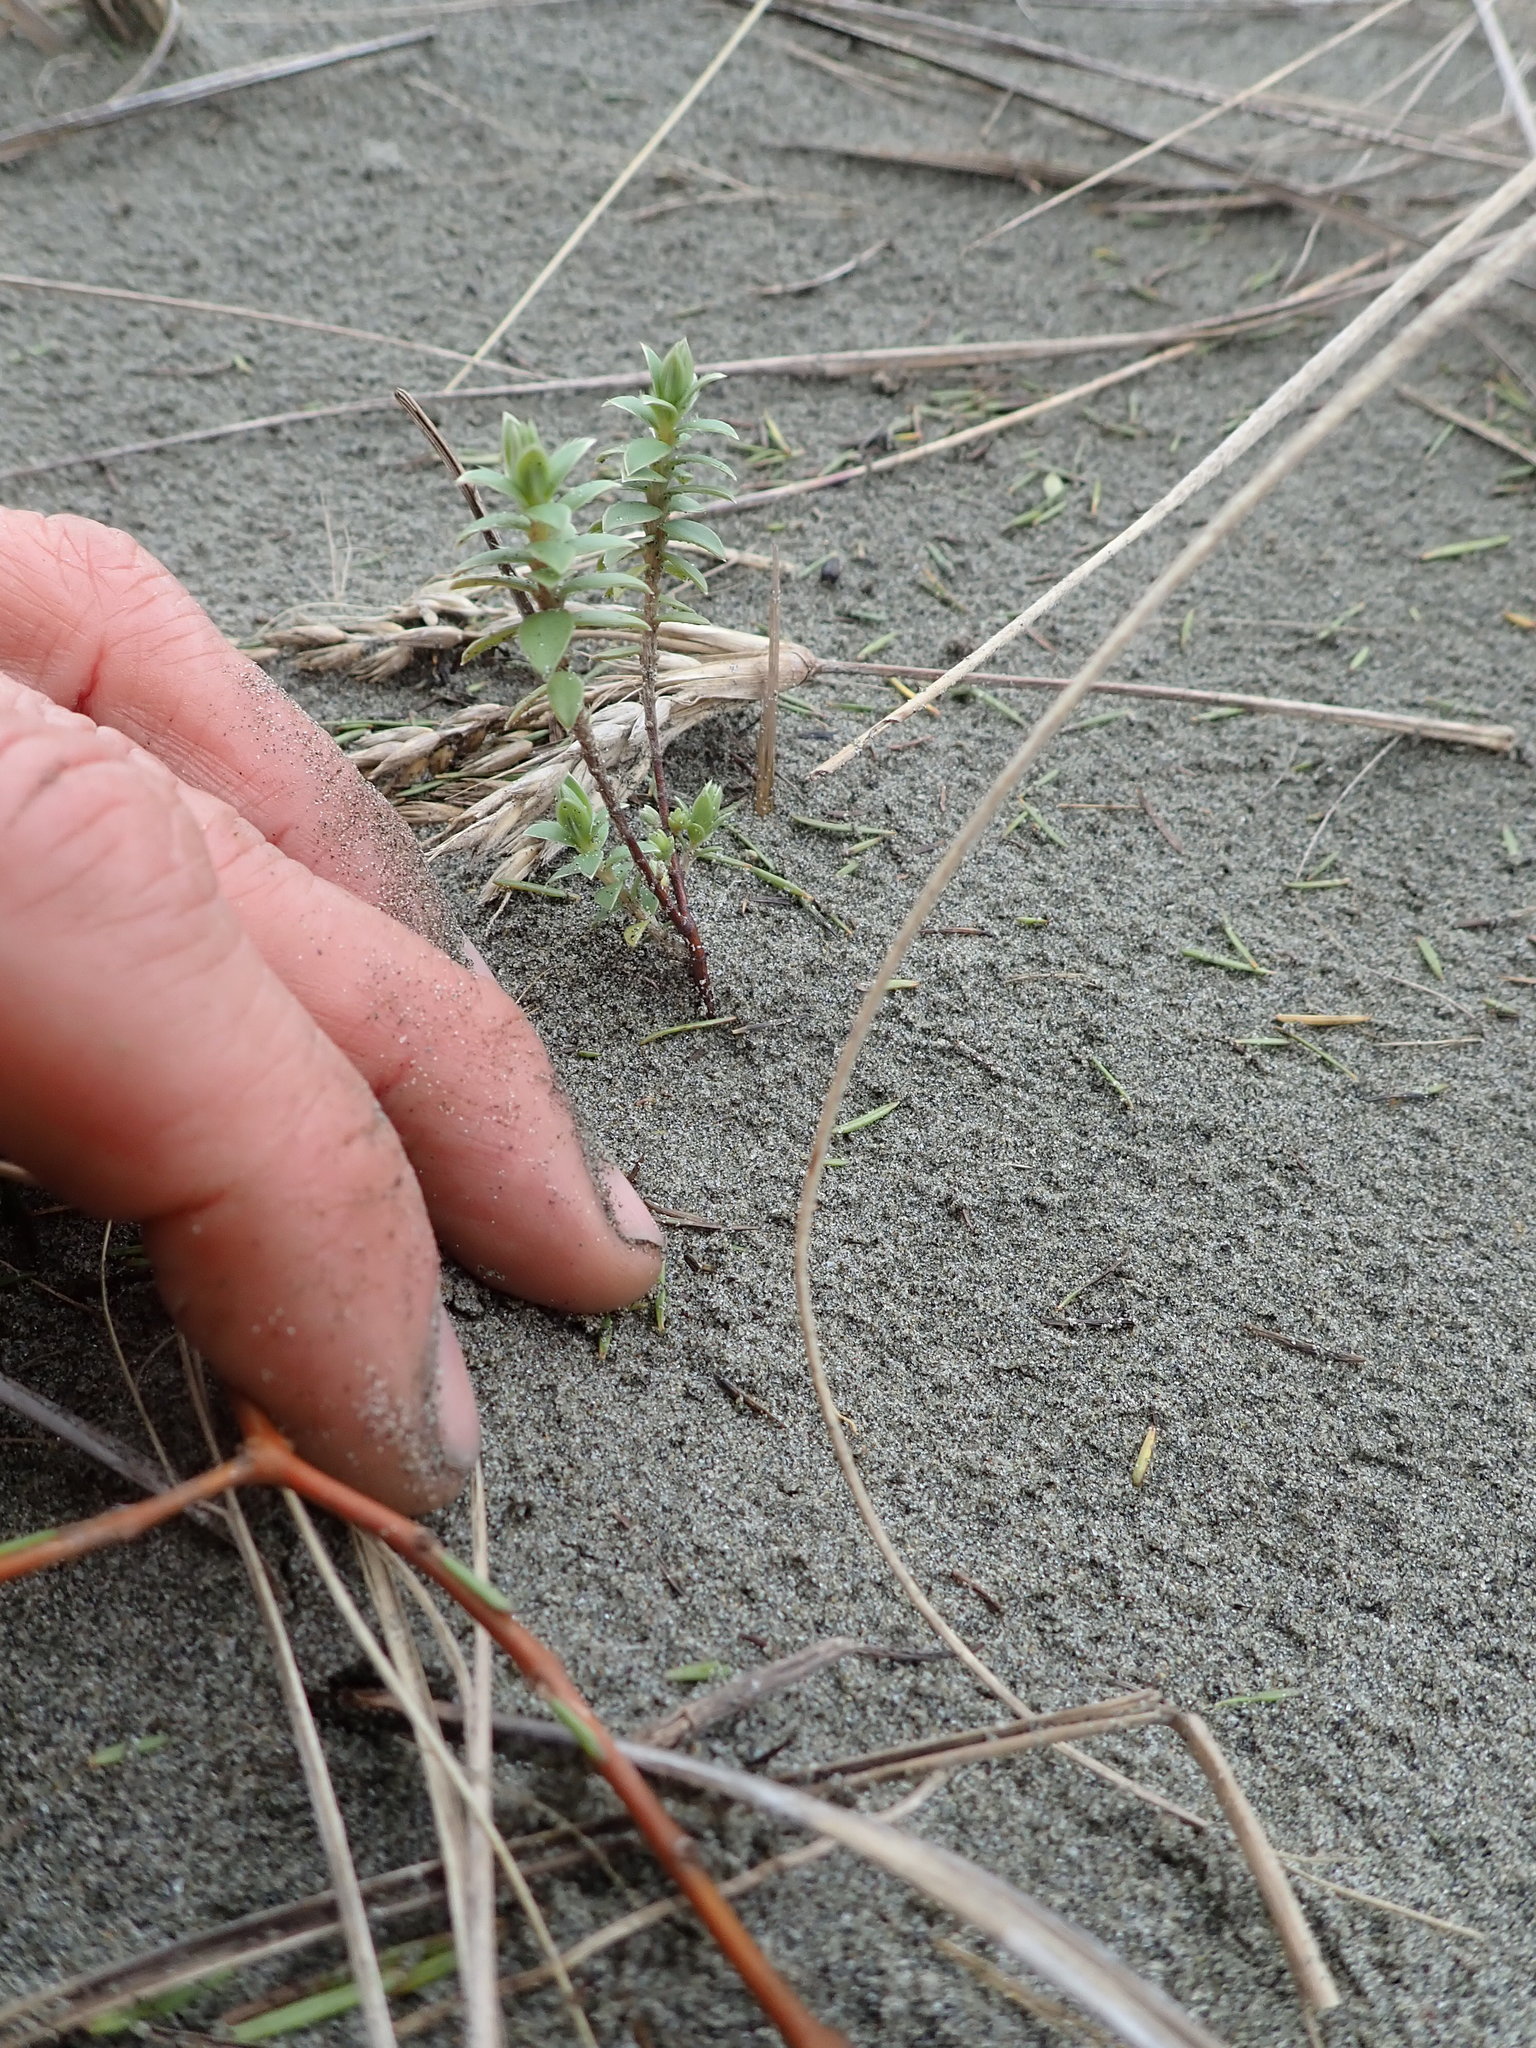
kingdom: Plantae
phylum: Tracheophyta
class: Magnoliopsida
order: Malvales
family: Thymelaeaceae
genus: Pimelea
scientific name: Pimelea villosa
